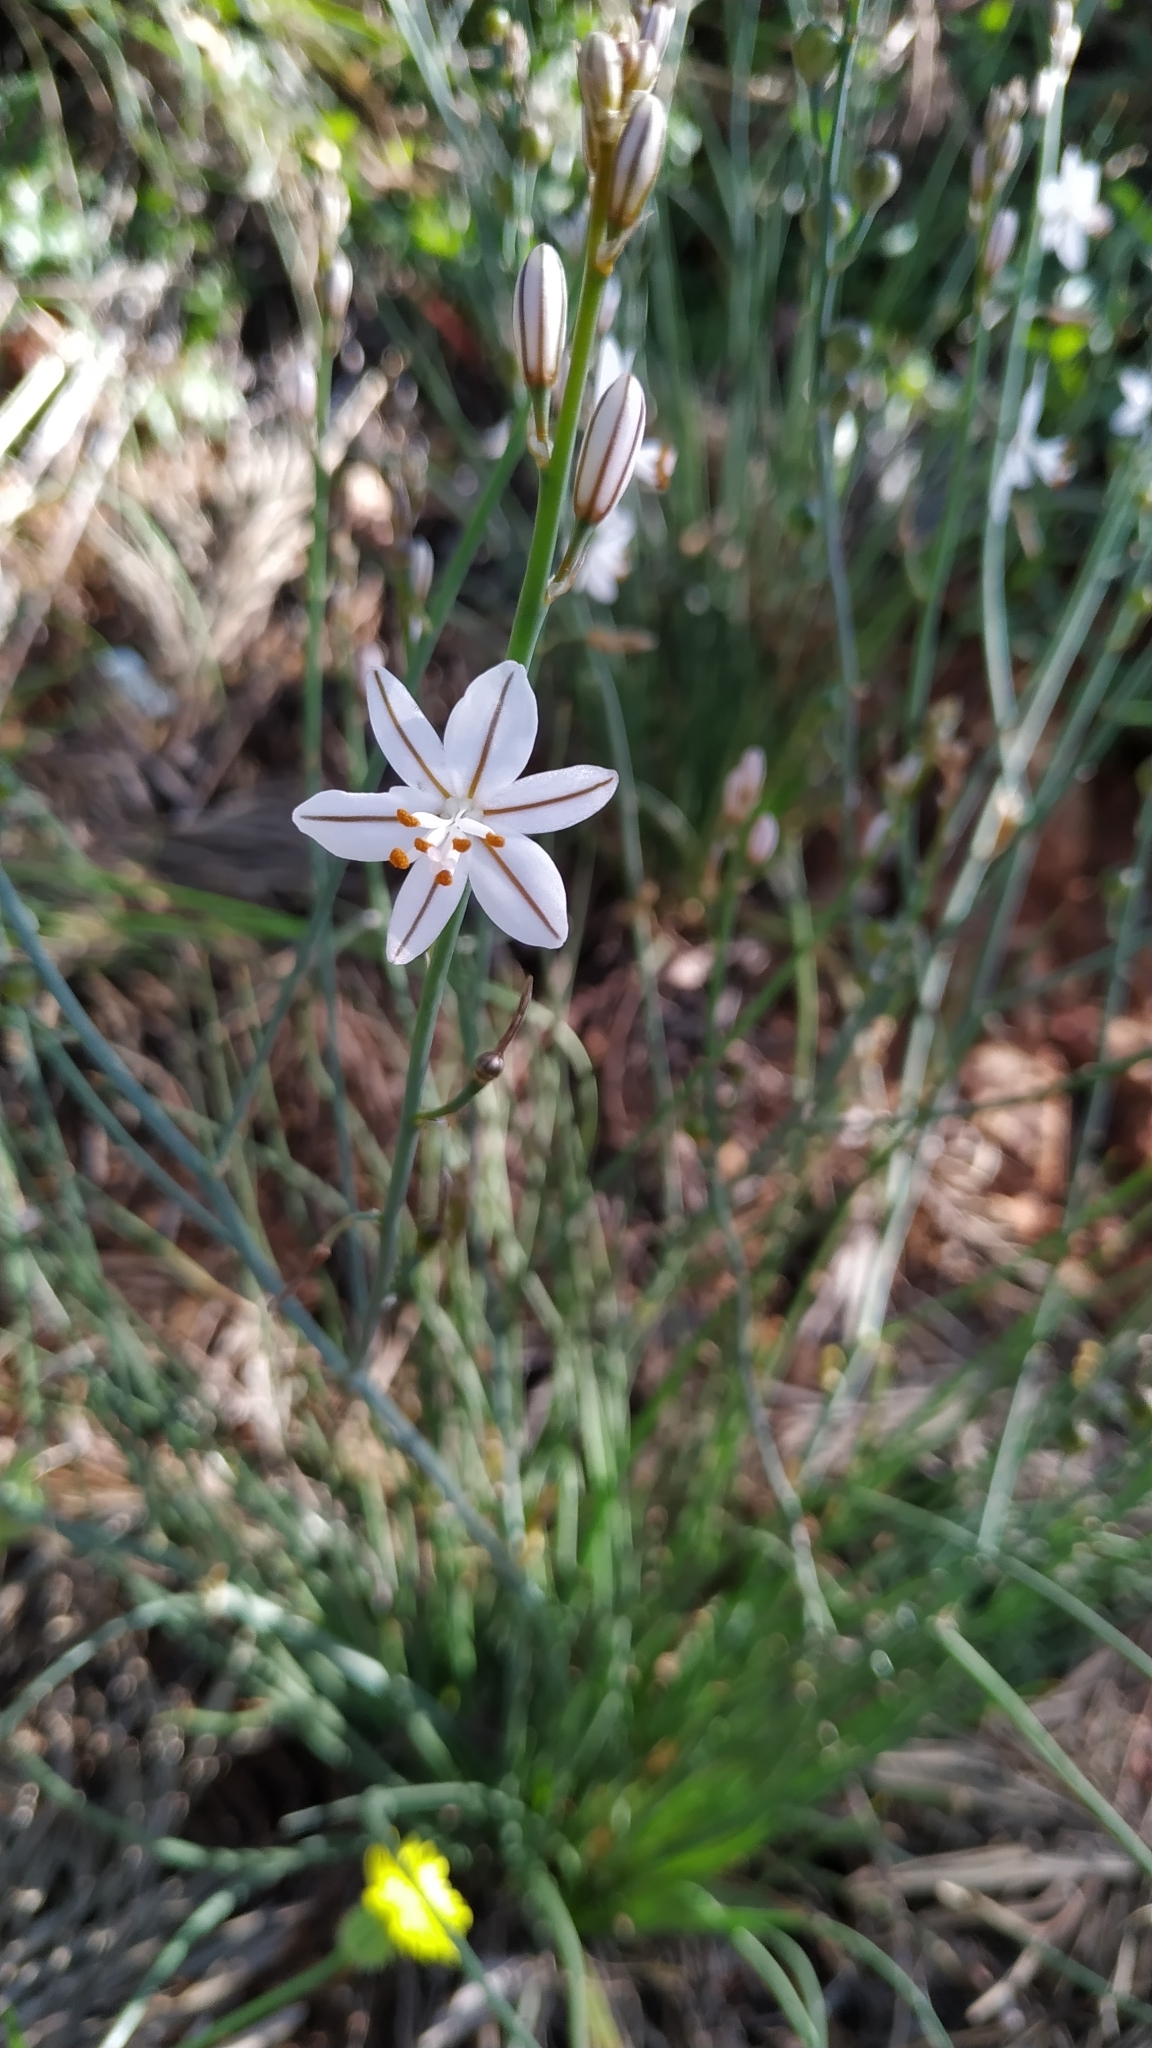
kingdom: Plantae
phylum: Tracheophyta
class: Liliopsida
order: Asparagales
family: Asphodelaceae
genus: Asphodelus
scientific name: Asphodelus fistulosus
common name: Onionweed
